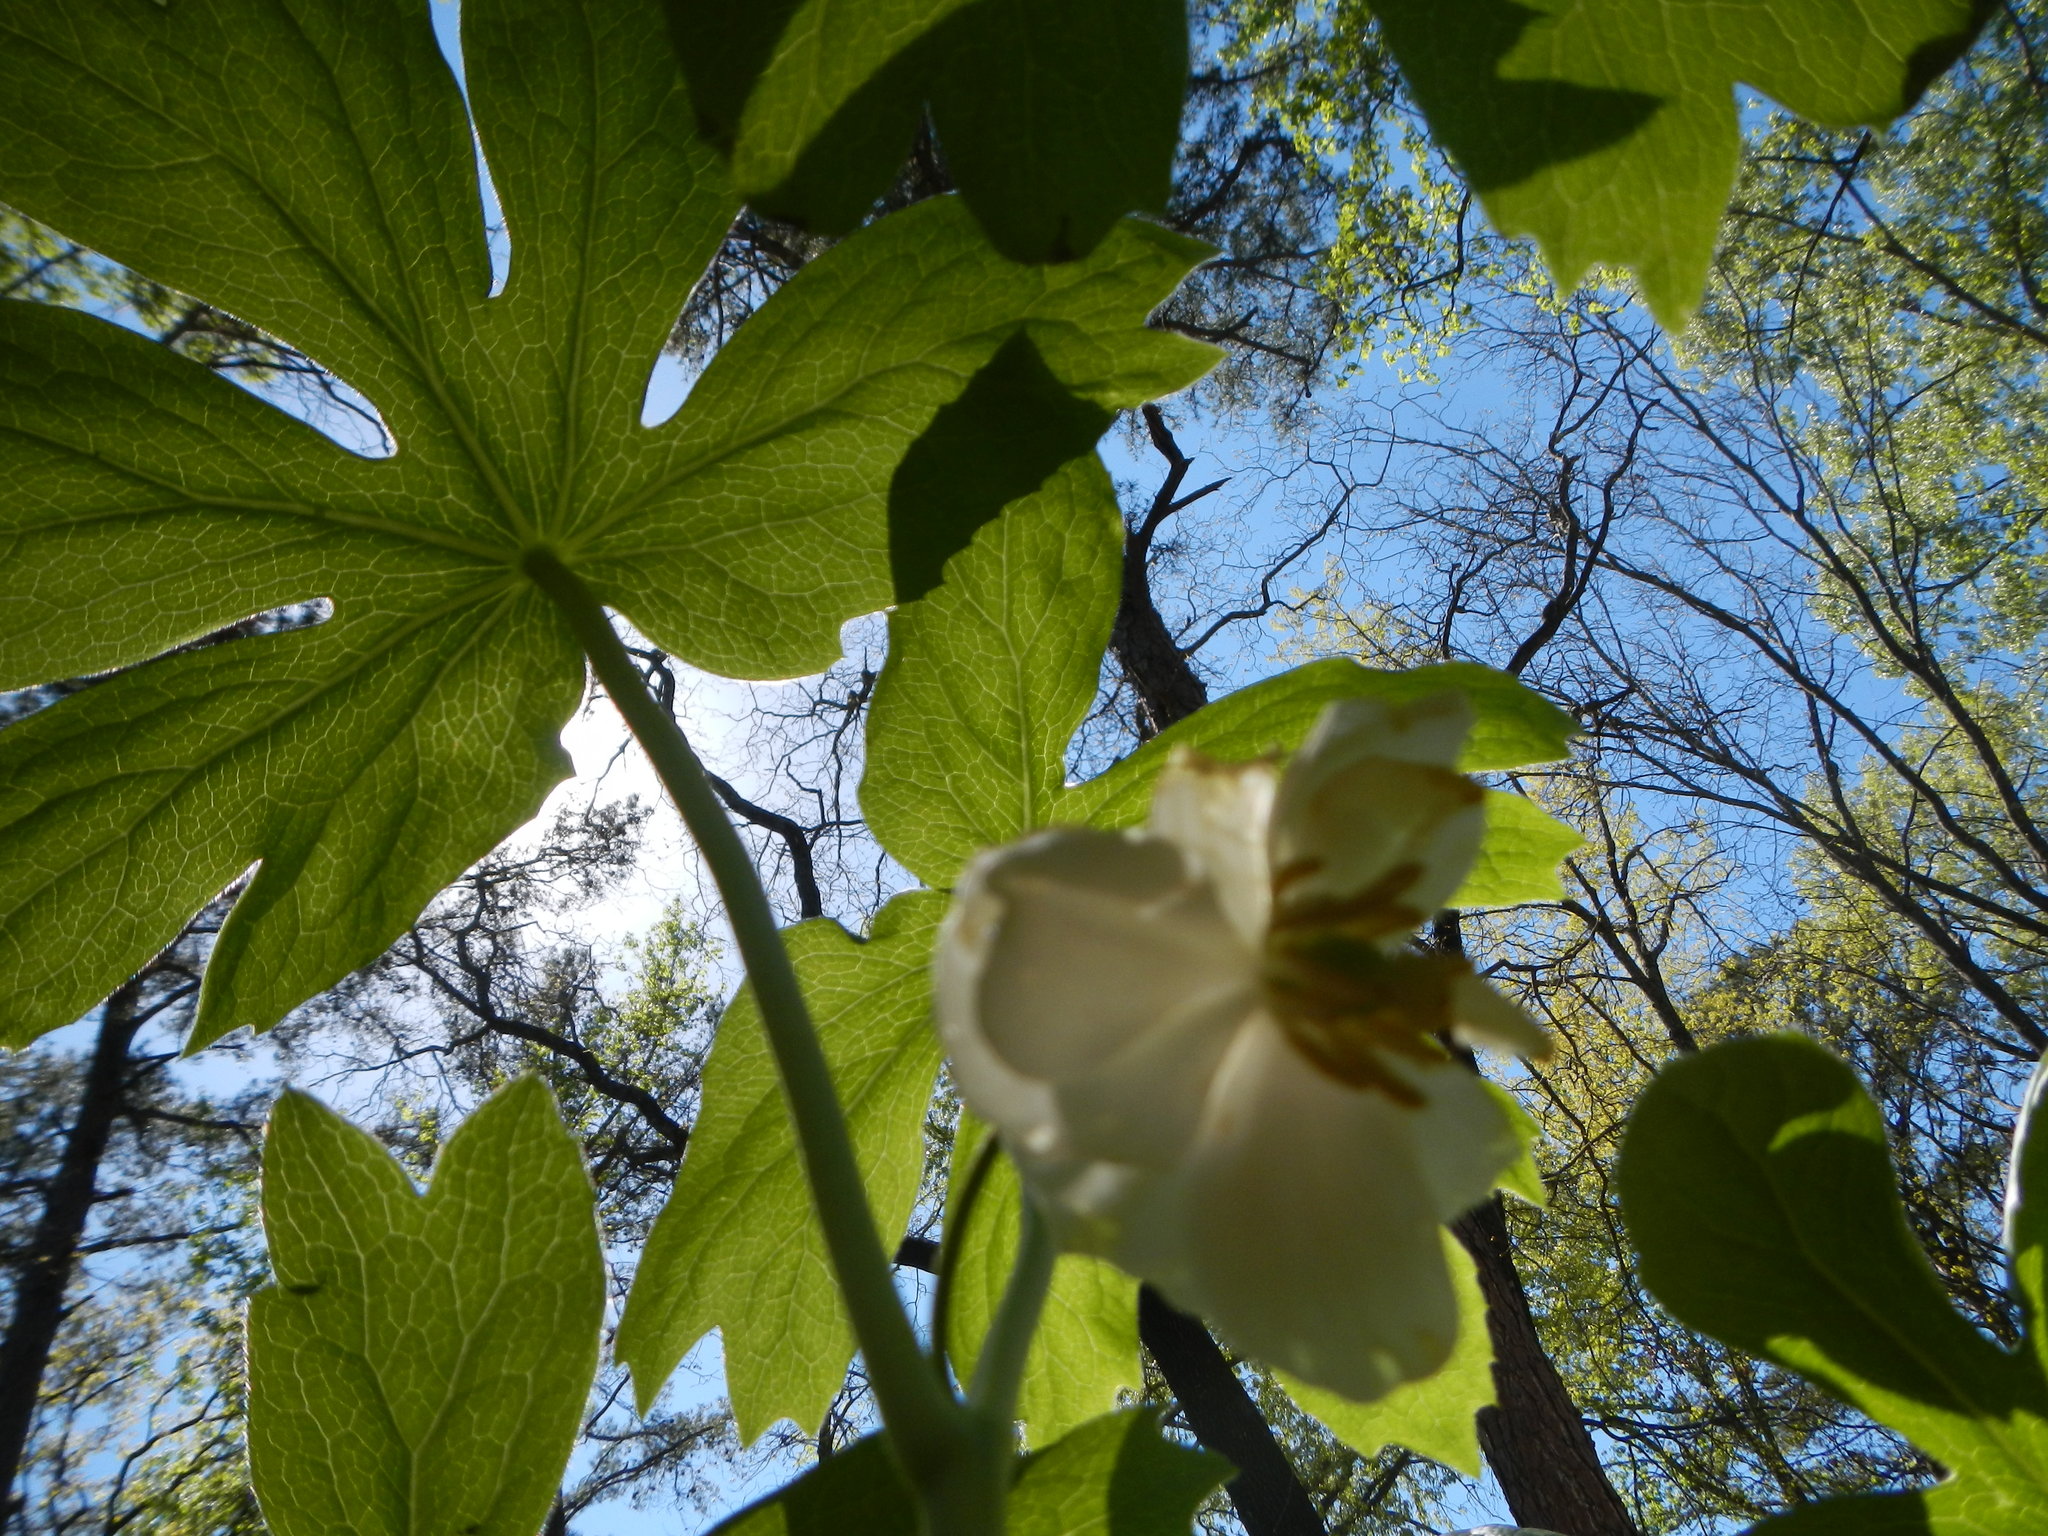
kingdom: Plantae
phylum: Tracheophyta
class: Magnoliopsida
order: Ranunculales
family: Berberidaceae
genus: Podophyllum
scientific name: Podophyllum peltatum
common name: Wild mandrake
